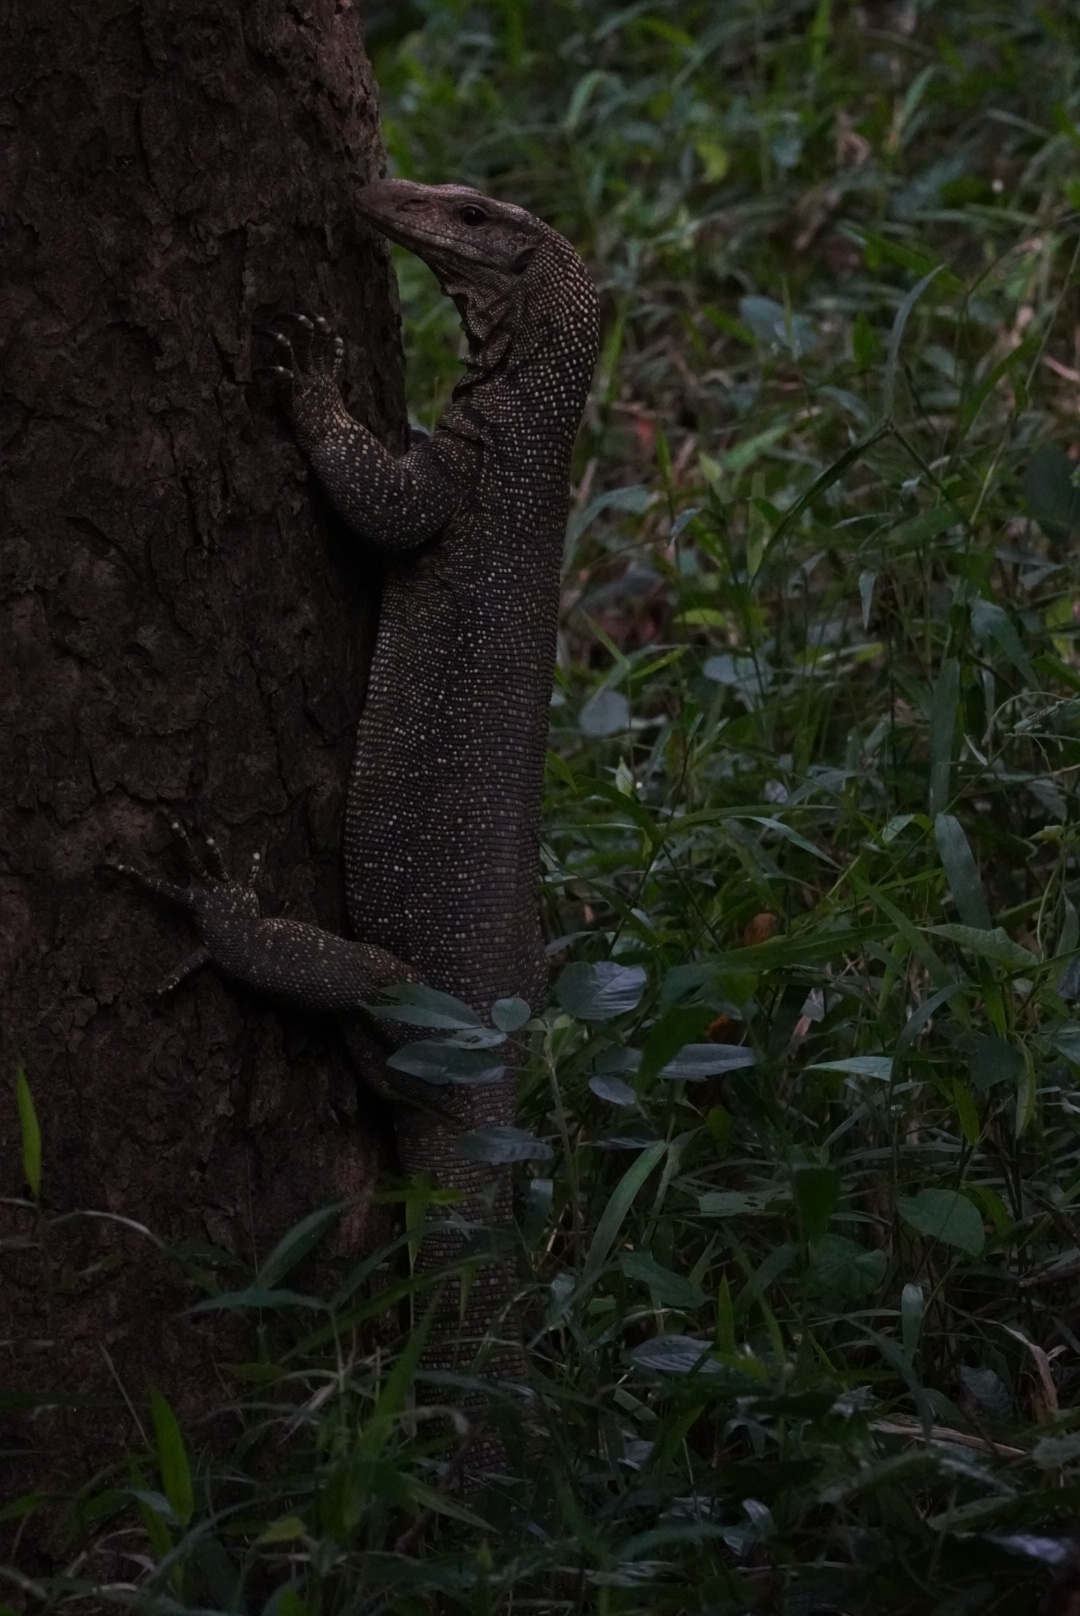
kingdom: Animalia
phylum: Chordata
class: Squamata
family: Varanidae
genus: Varanus
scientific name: Varanus nebulosus
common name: Clouded monitor
